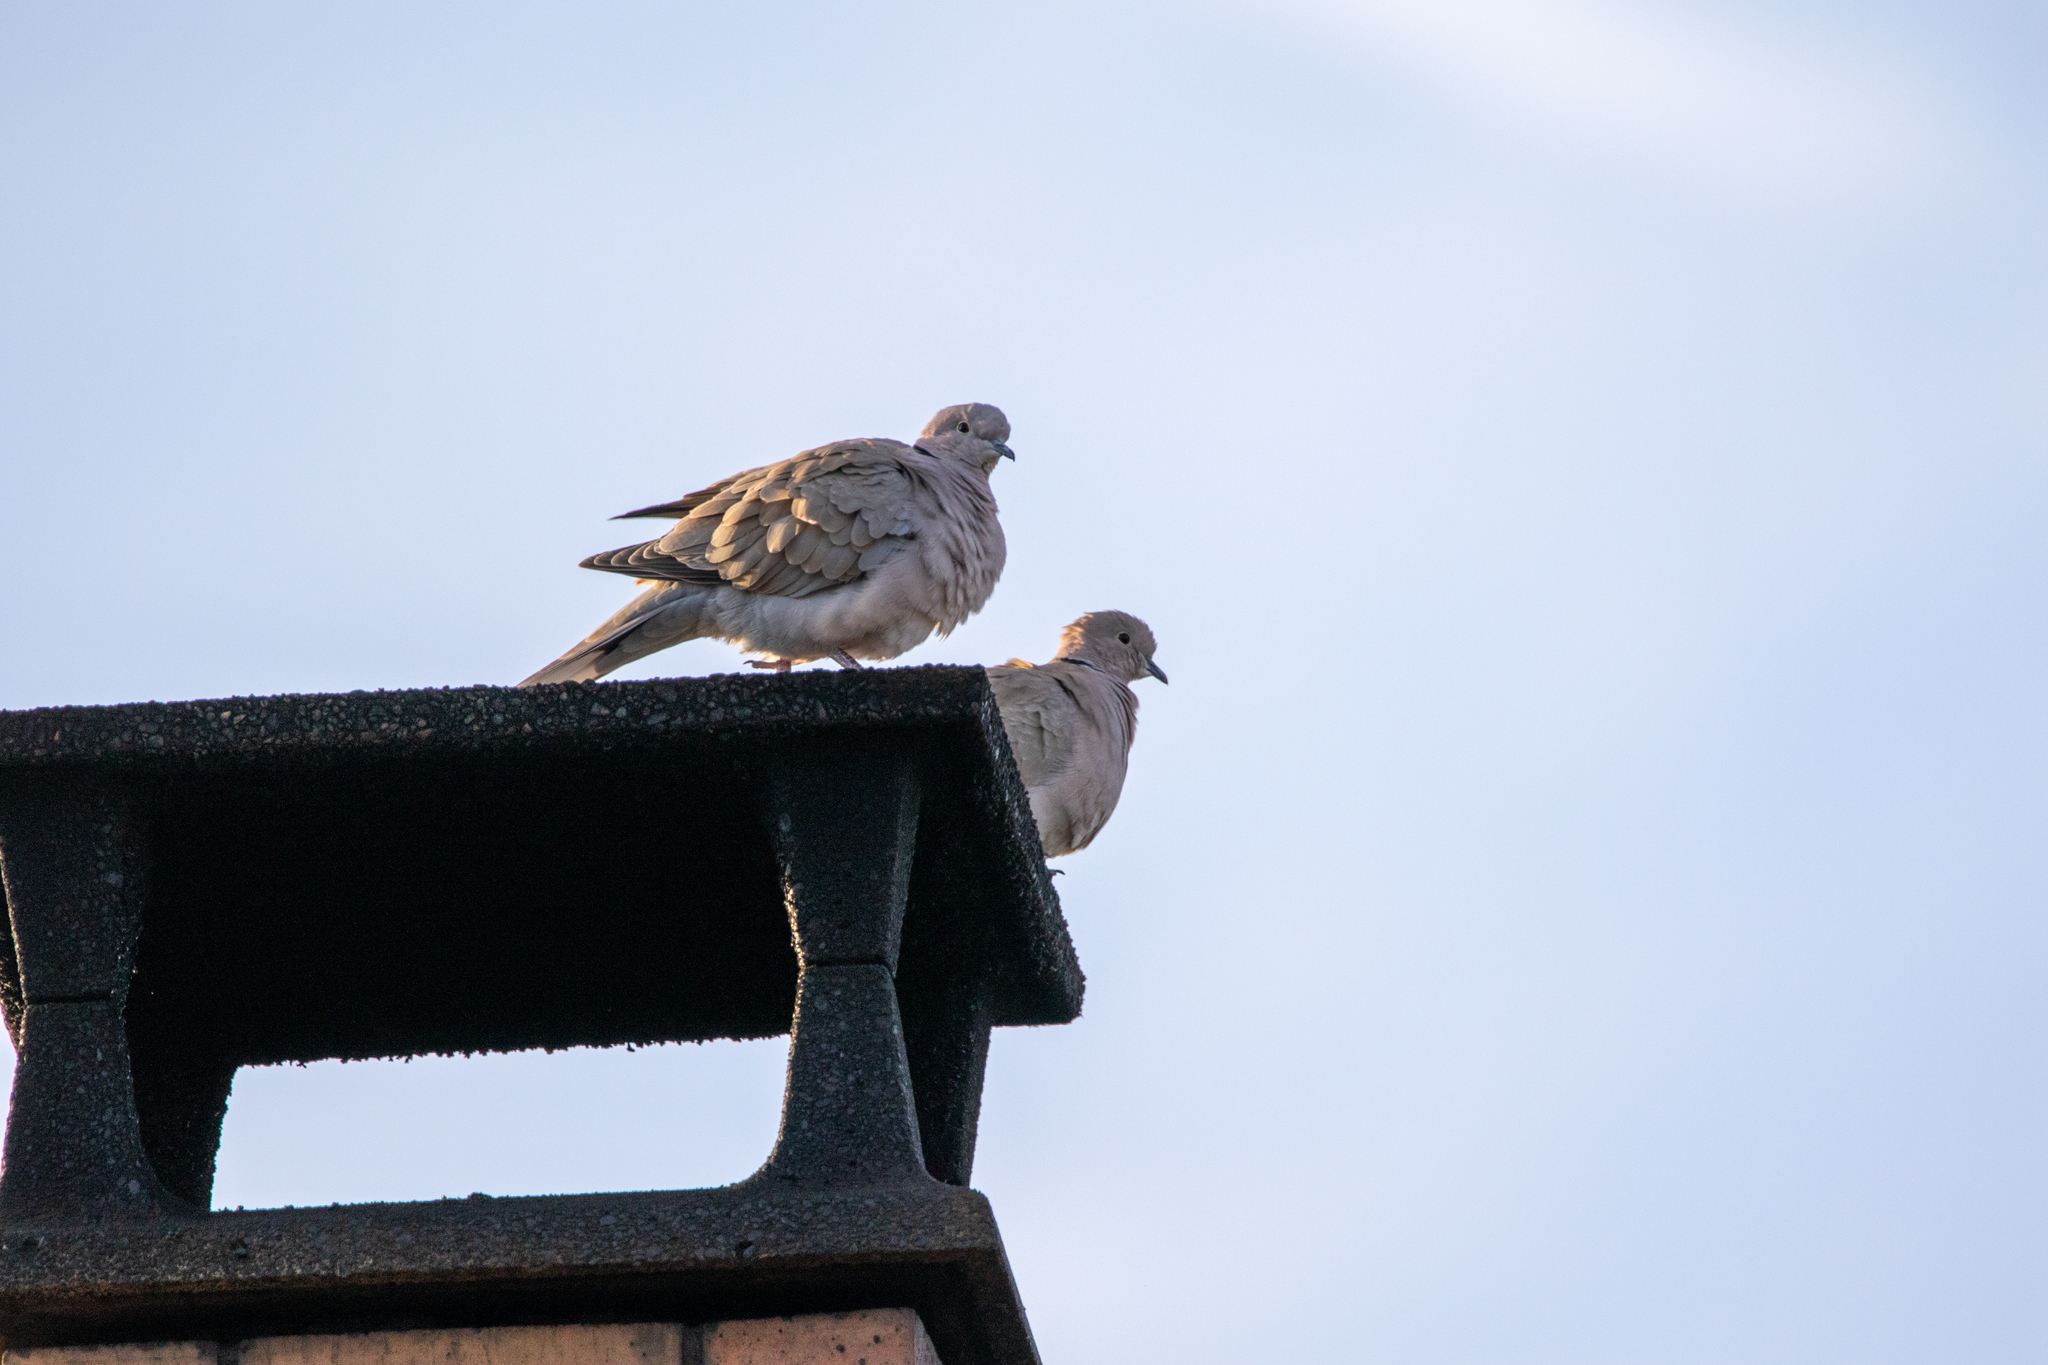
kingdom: Animalia
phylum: Chordata
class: Aves
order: Columbiformes
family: Columbidae
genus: Streptopelia
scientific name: Streptopelia decaocto
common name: Eurasian collared dove
